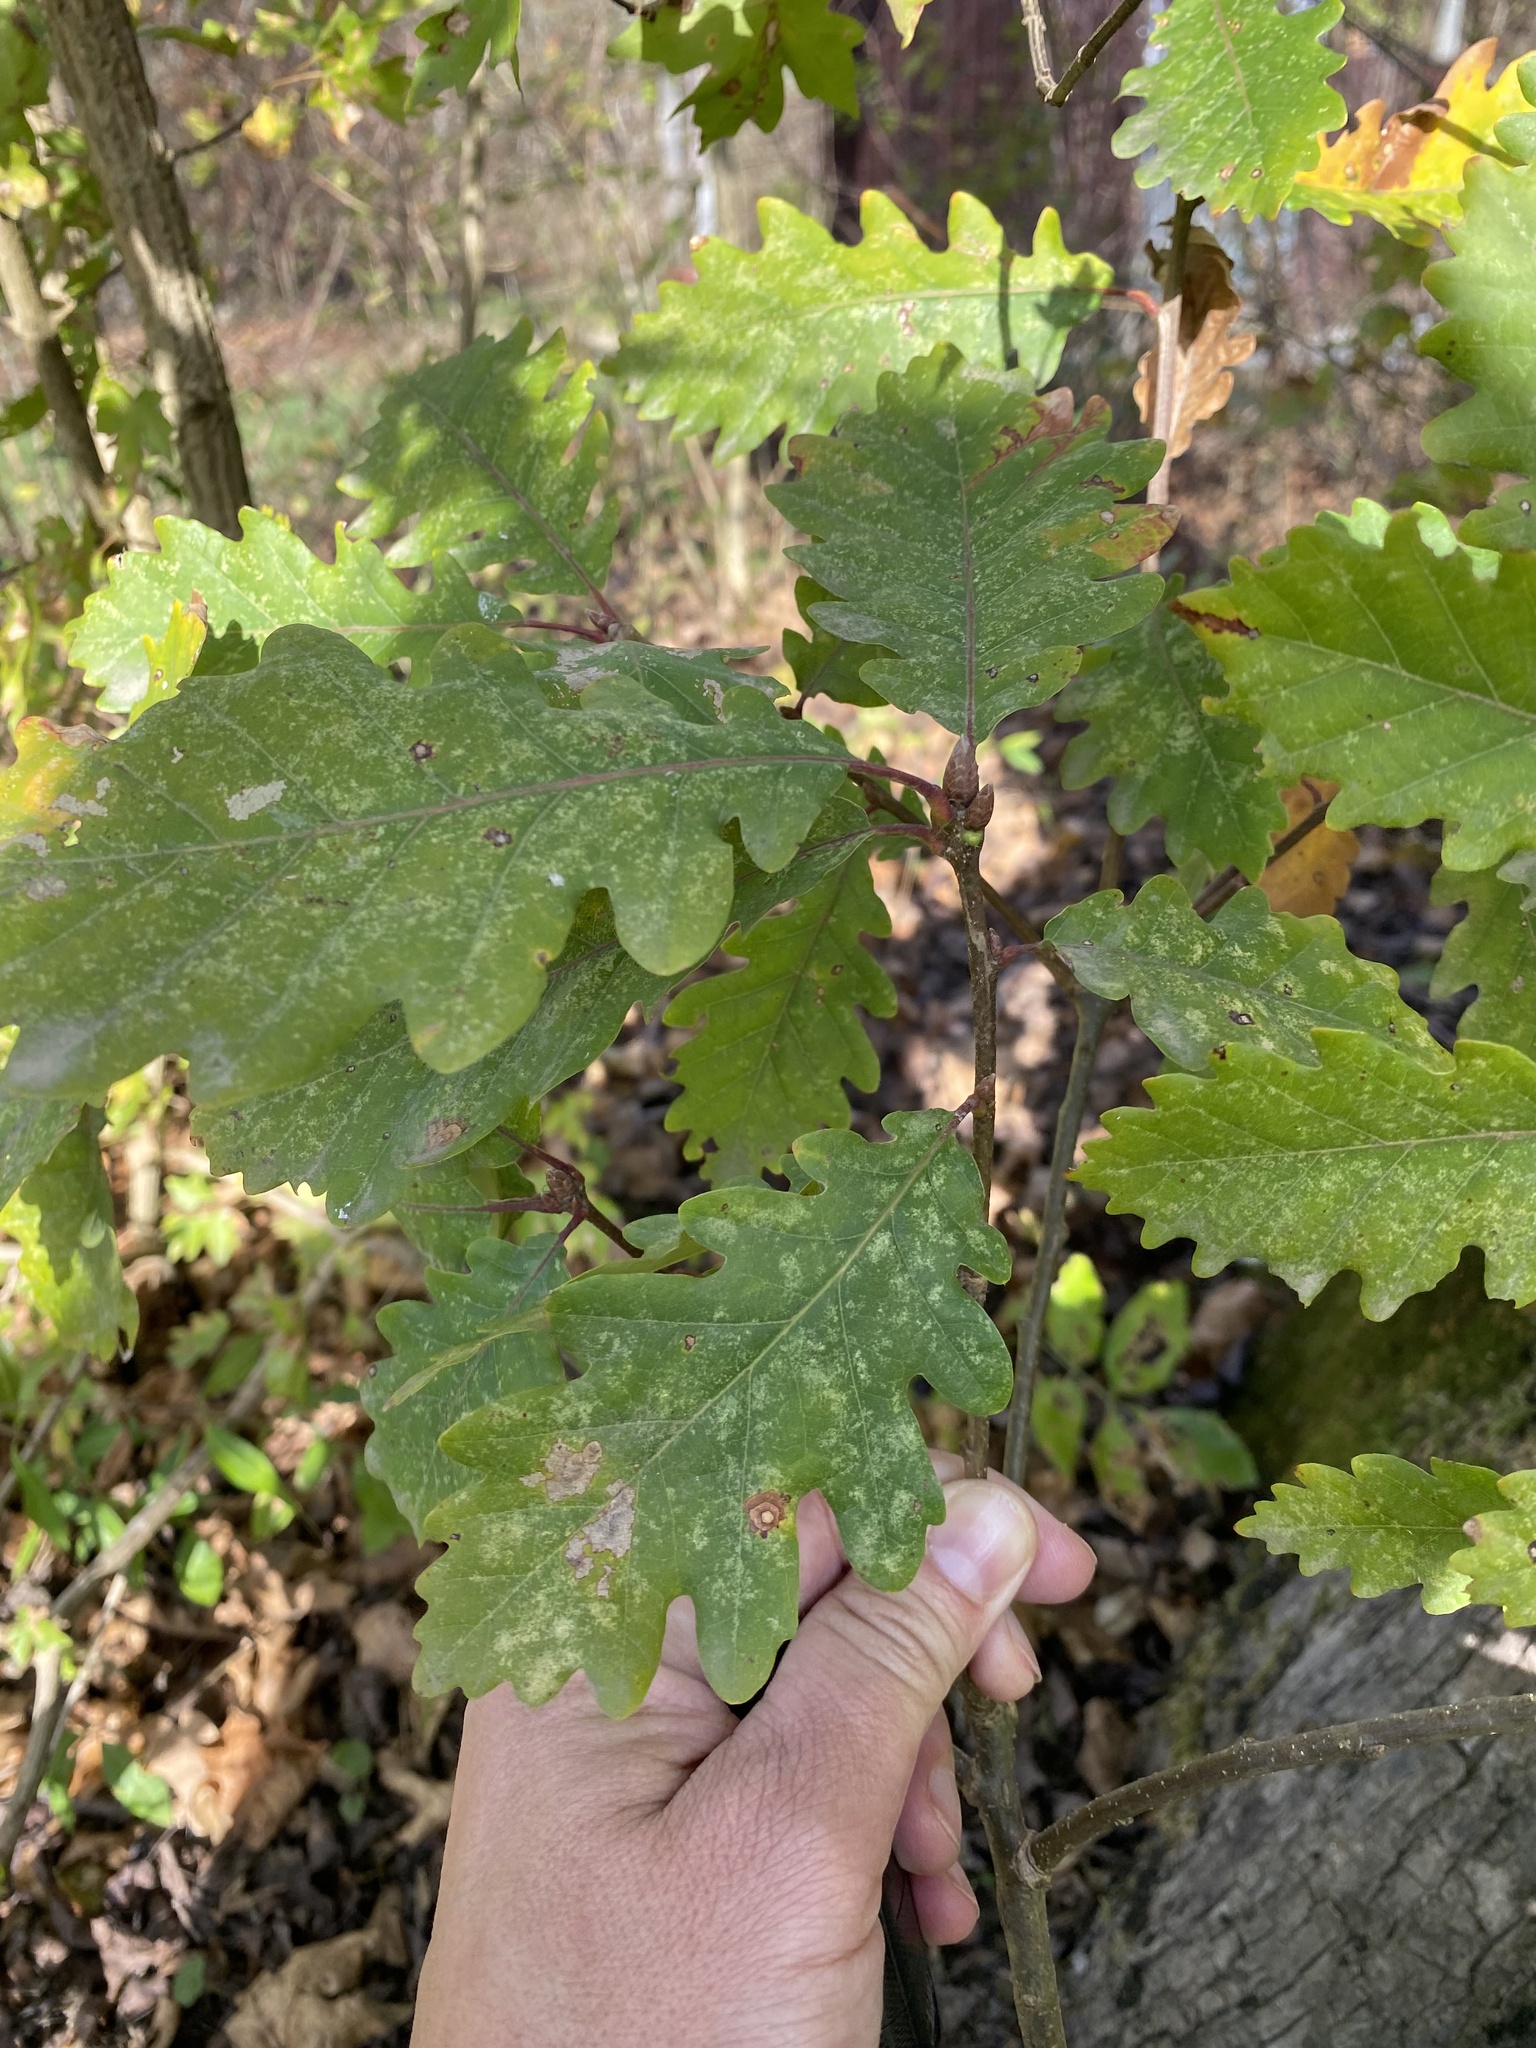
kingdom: Plantae
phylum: Tracheophyta
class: Magnoliopsida
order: Fagales
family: Fagaceae
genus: Quercus
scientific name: Quercus pubescens
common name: Downy oak
